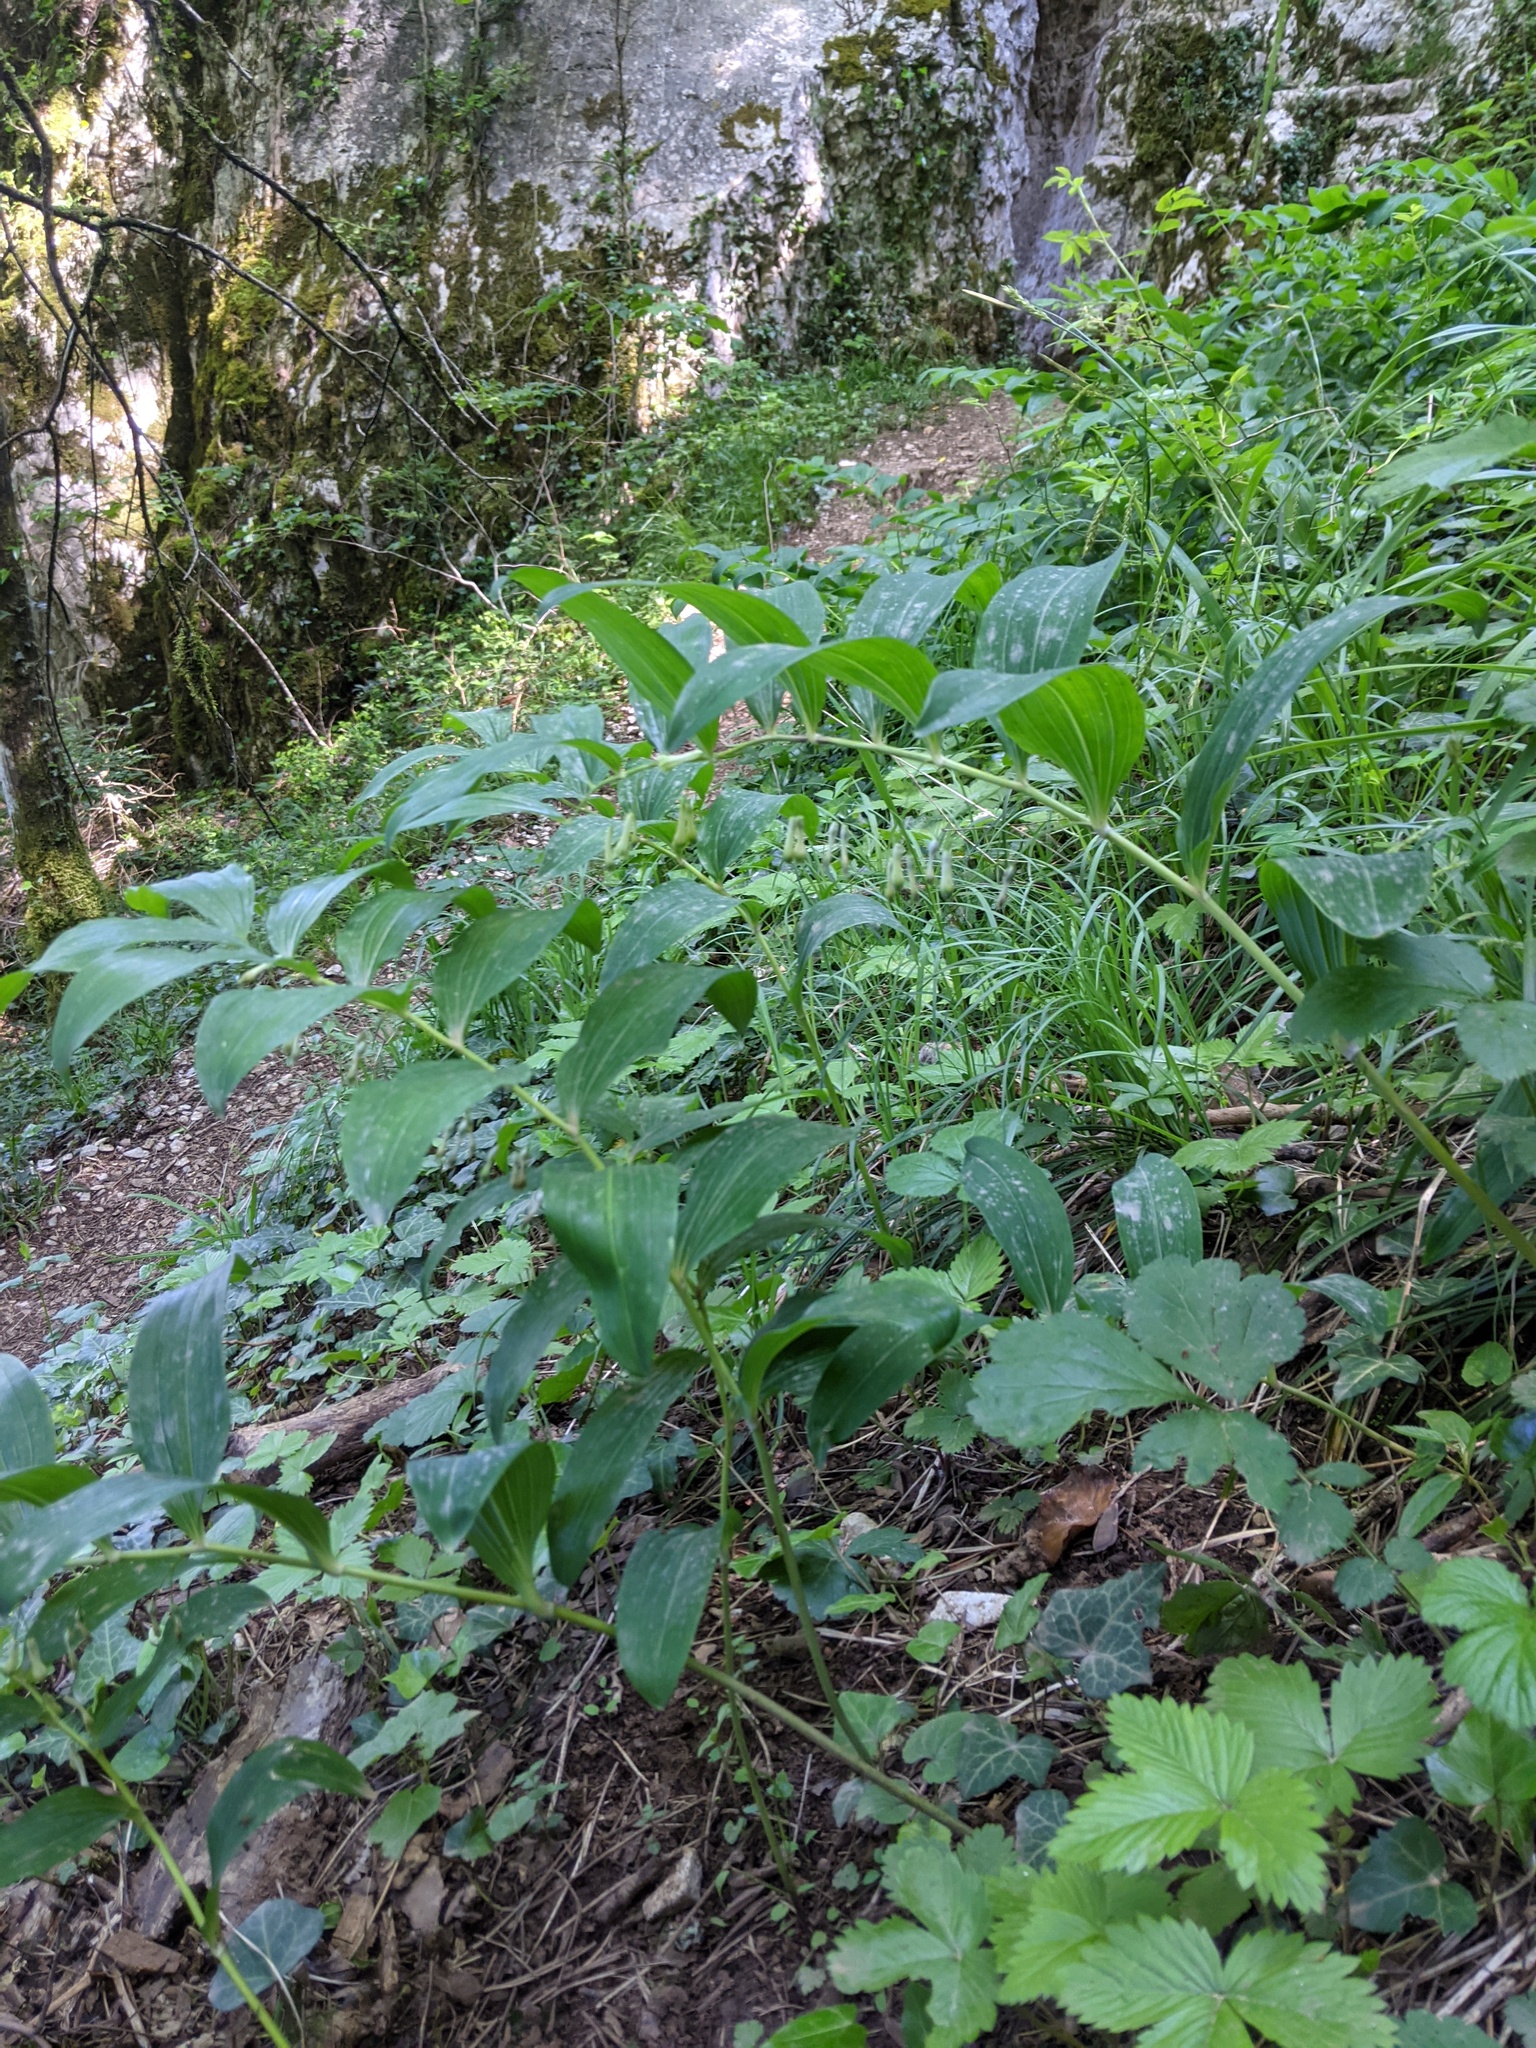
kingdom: Plantae
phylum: Tracheophyta
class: Liliopsida
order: Asparagales
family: Asparagaceae
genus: Polygonatum
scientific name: Polygonatum multiflorum
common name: Solomon's-seal
